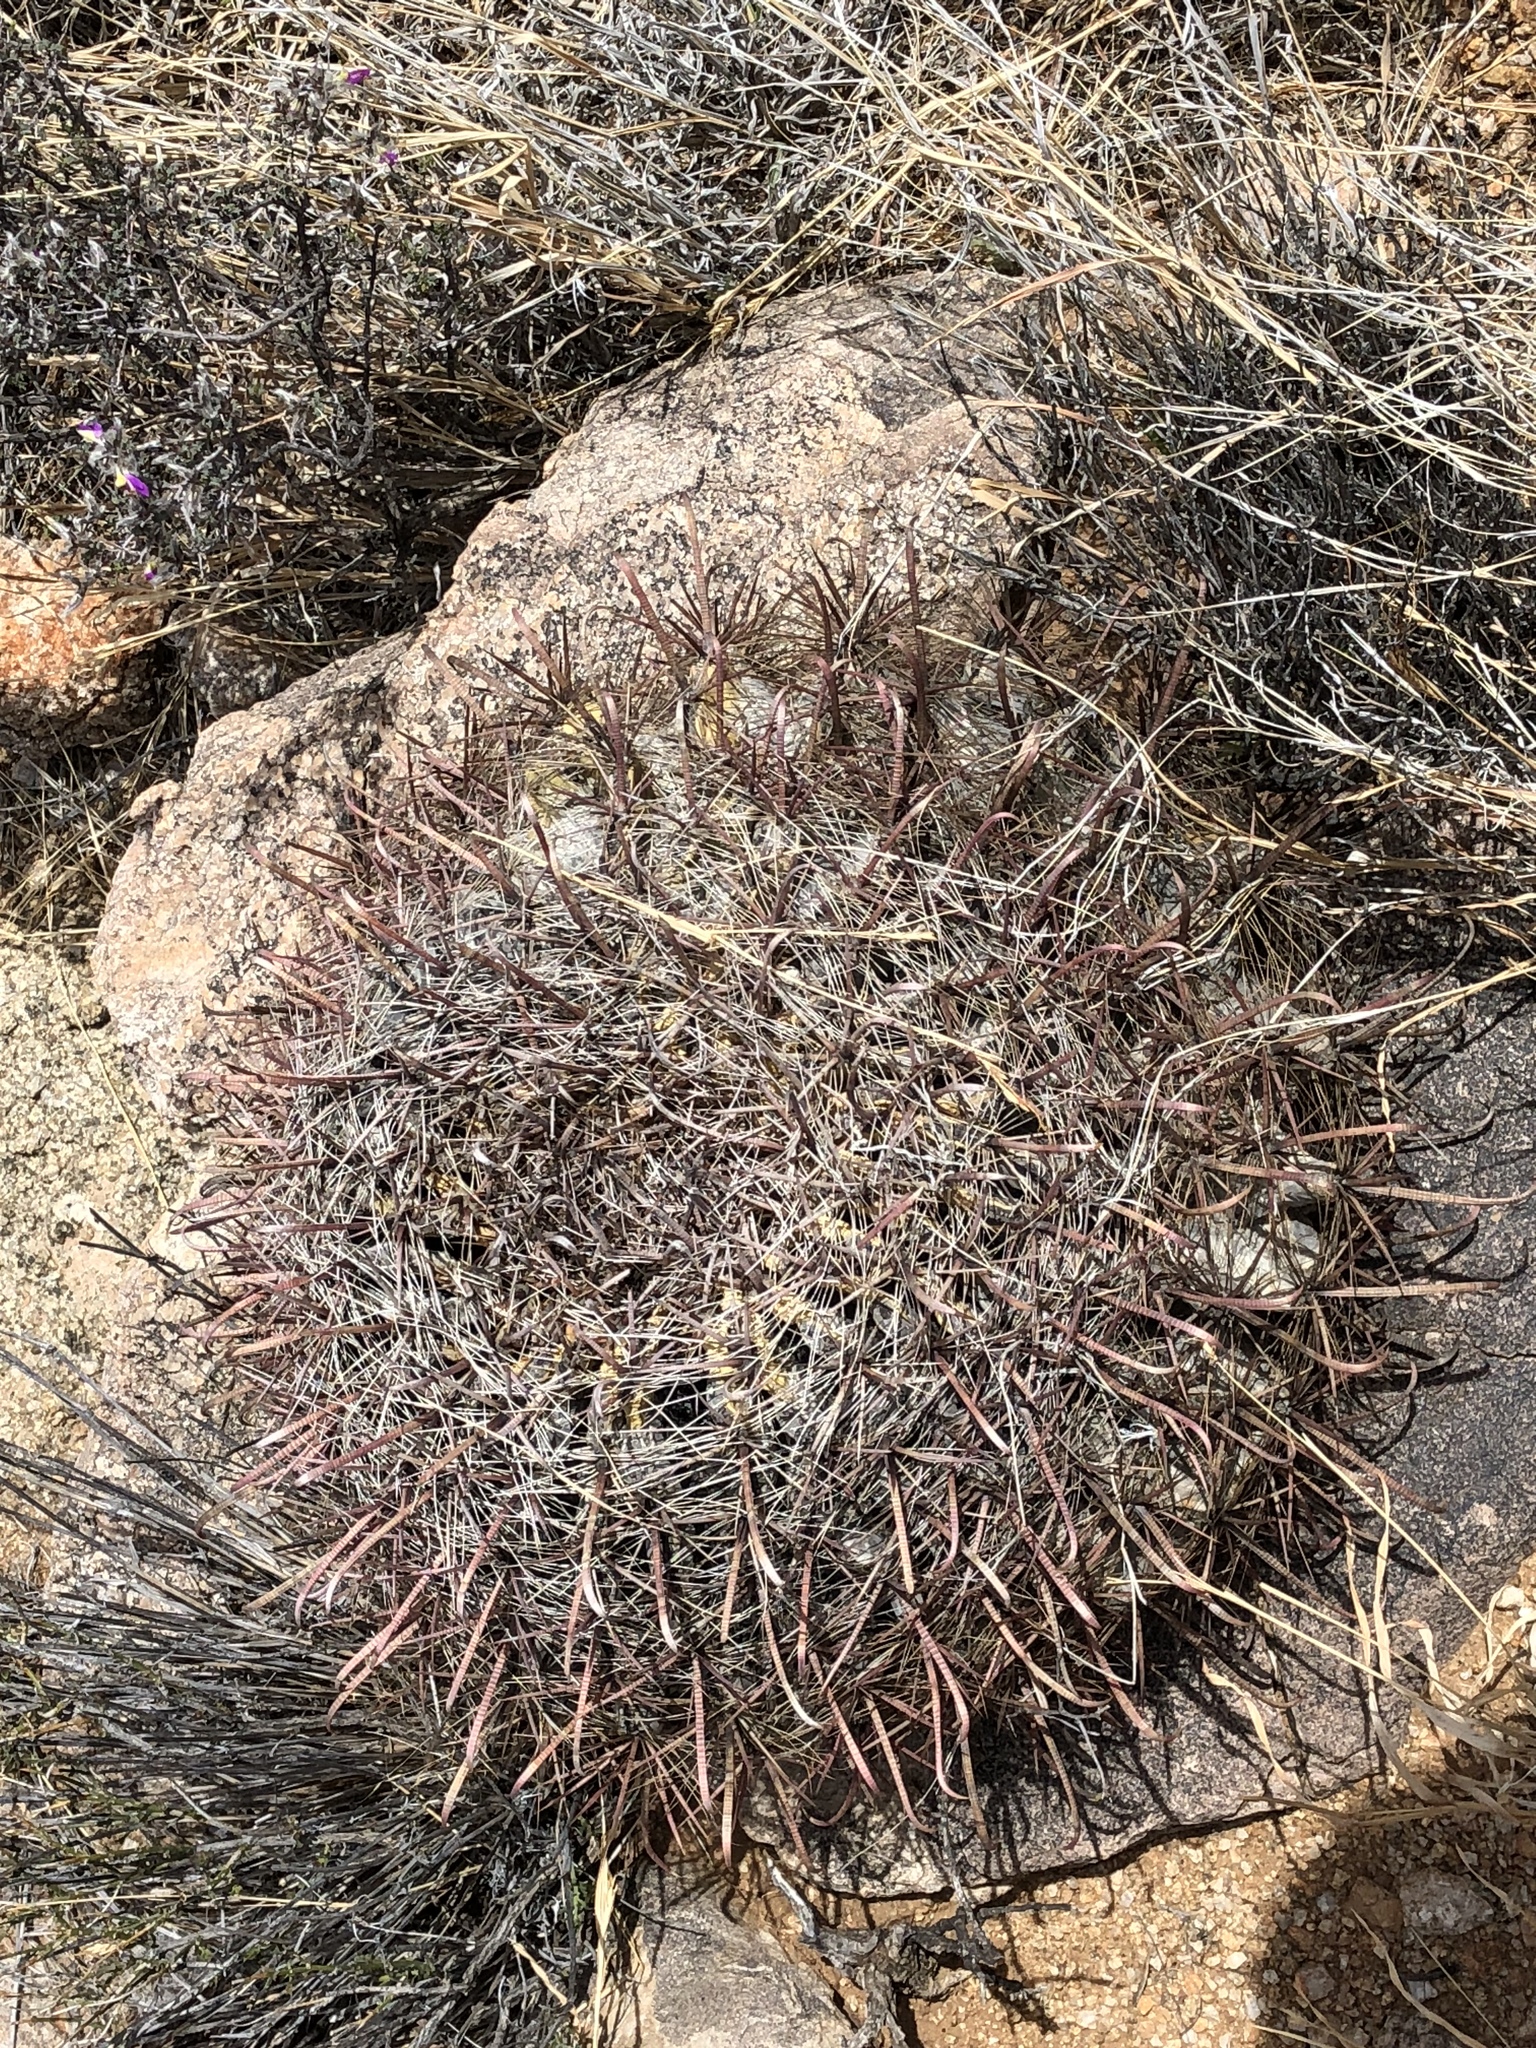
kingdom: Plantae
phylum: Tracheophyta
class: Magnoliopsida
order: Caryophyllales
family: Cactaceae
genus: Ferocactus
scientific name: Ferocactus wislizeni
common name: Candy barrel cactus
